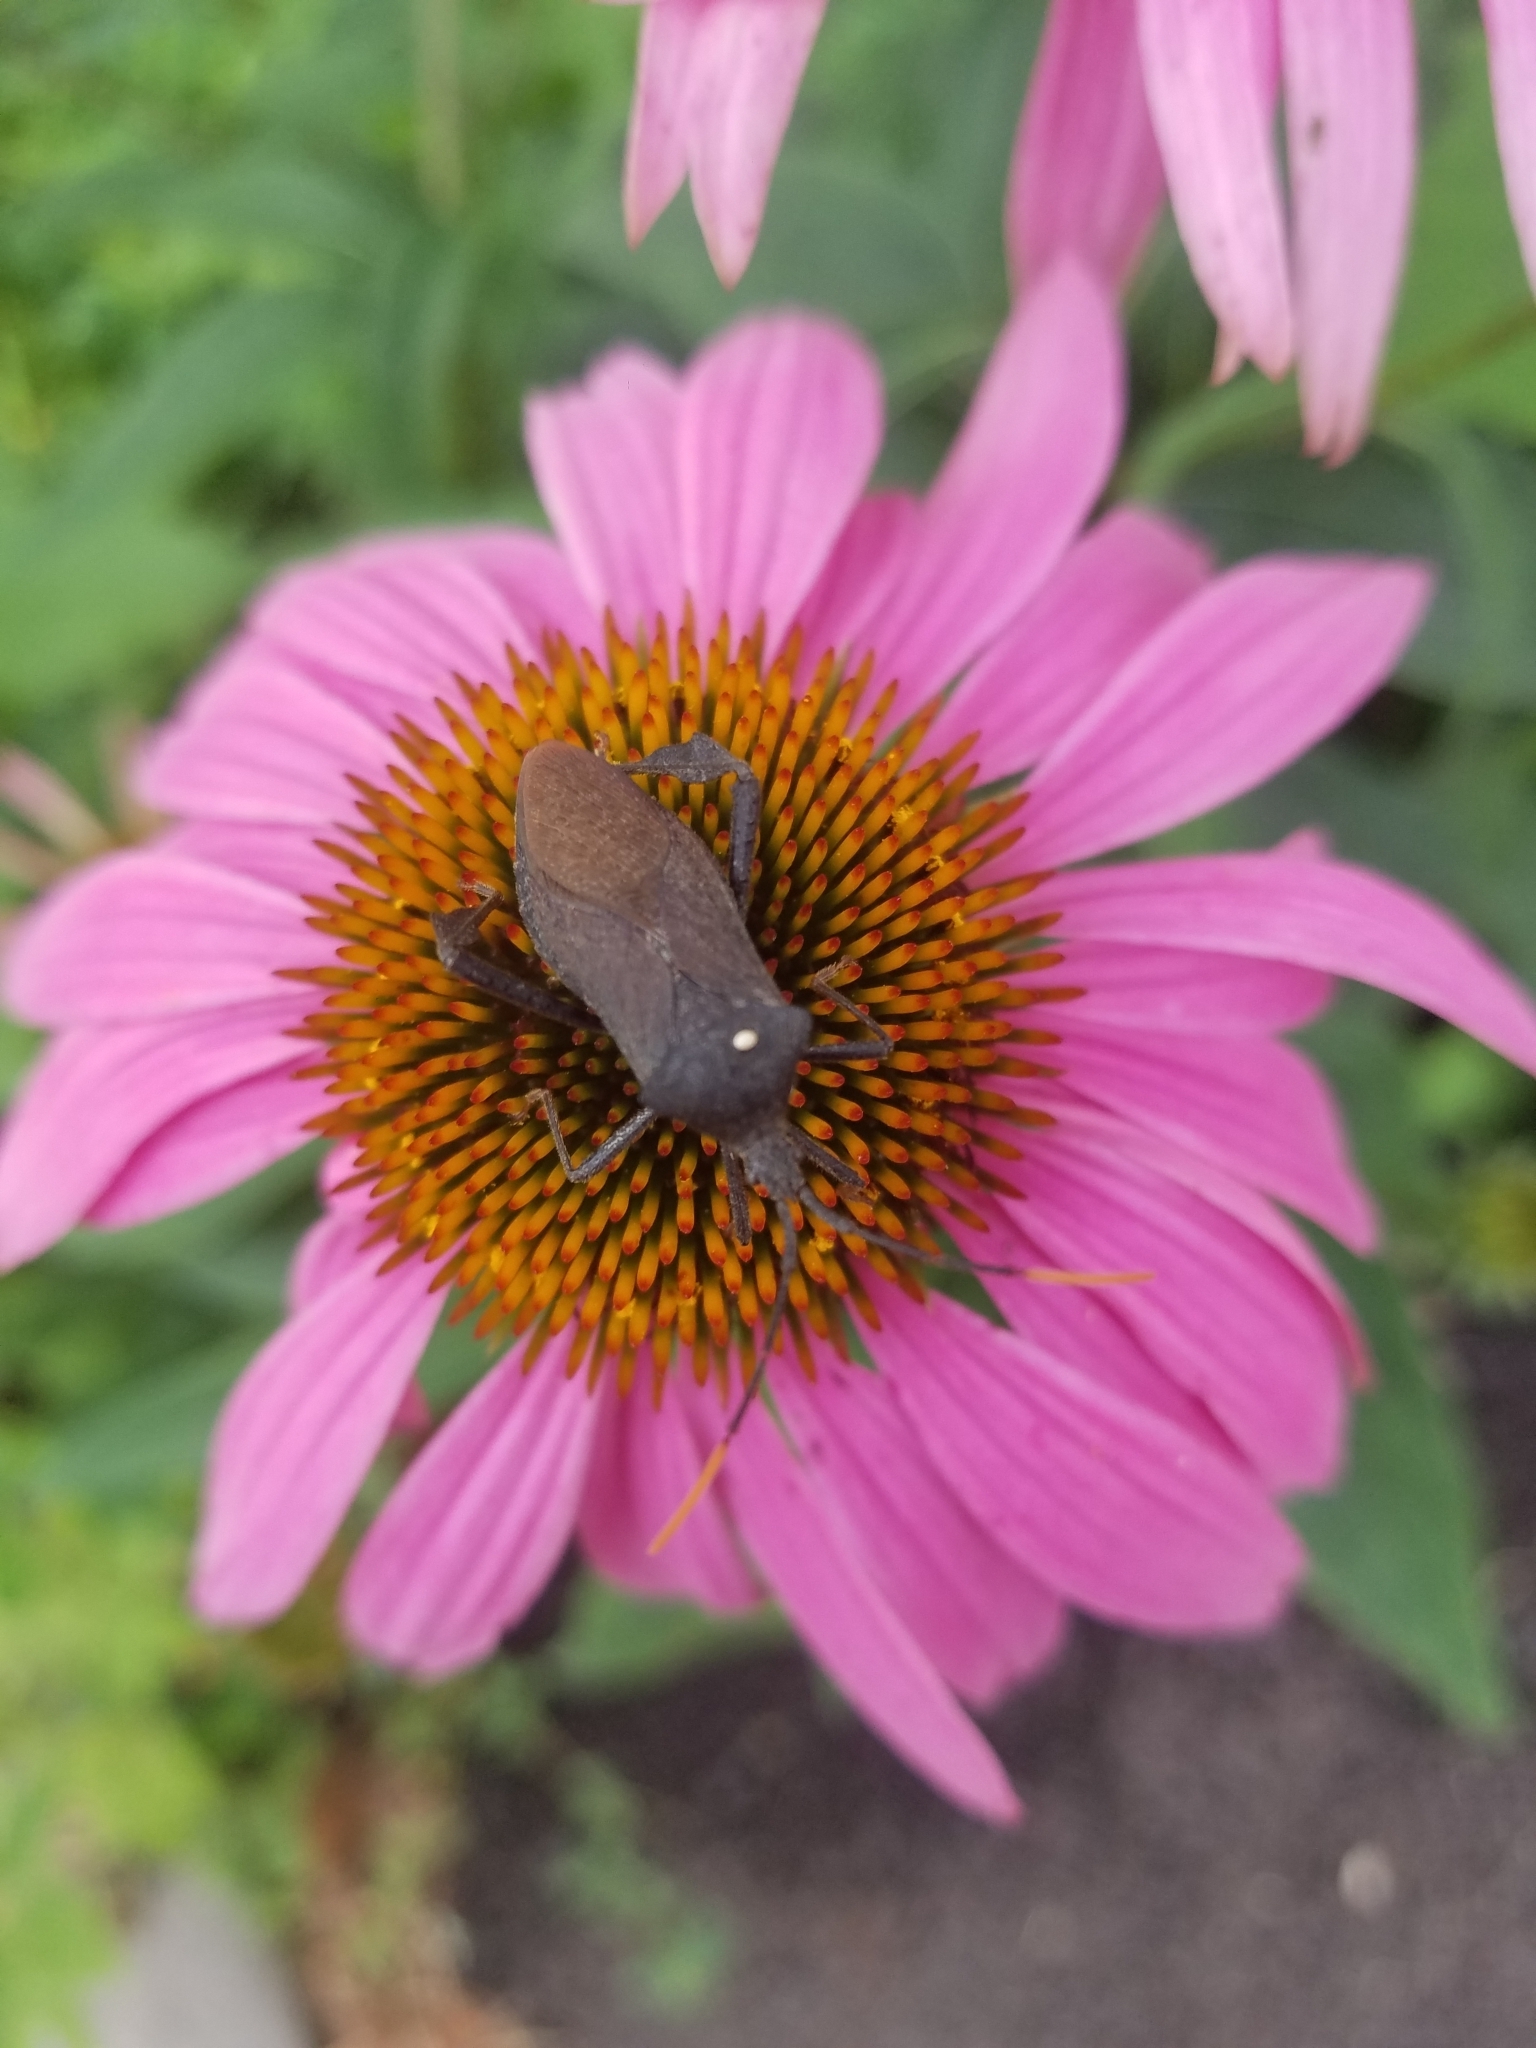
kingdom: Animalia
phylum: Arthropoda
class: Insecta
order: Hemiptera
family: Coreidae
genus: Acanthocephala
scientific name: Acanthocephala terminalis
